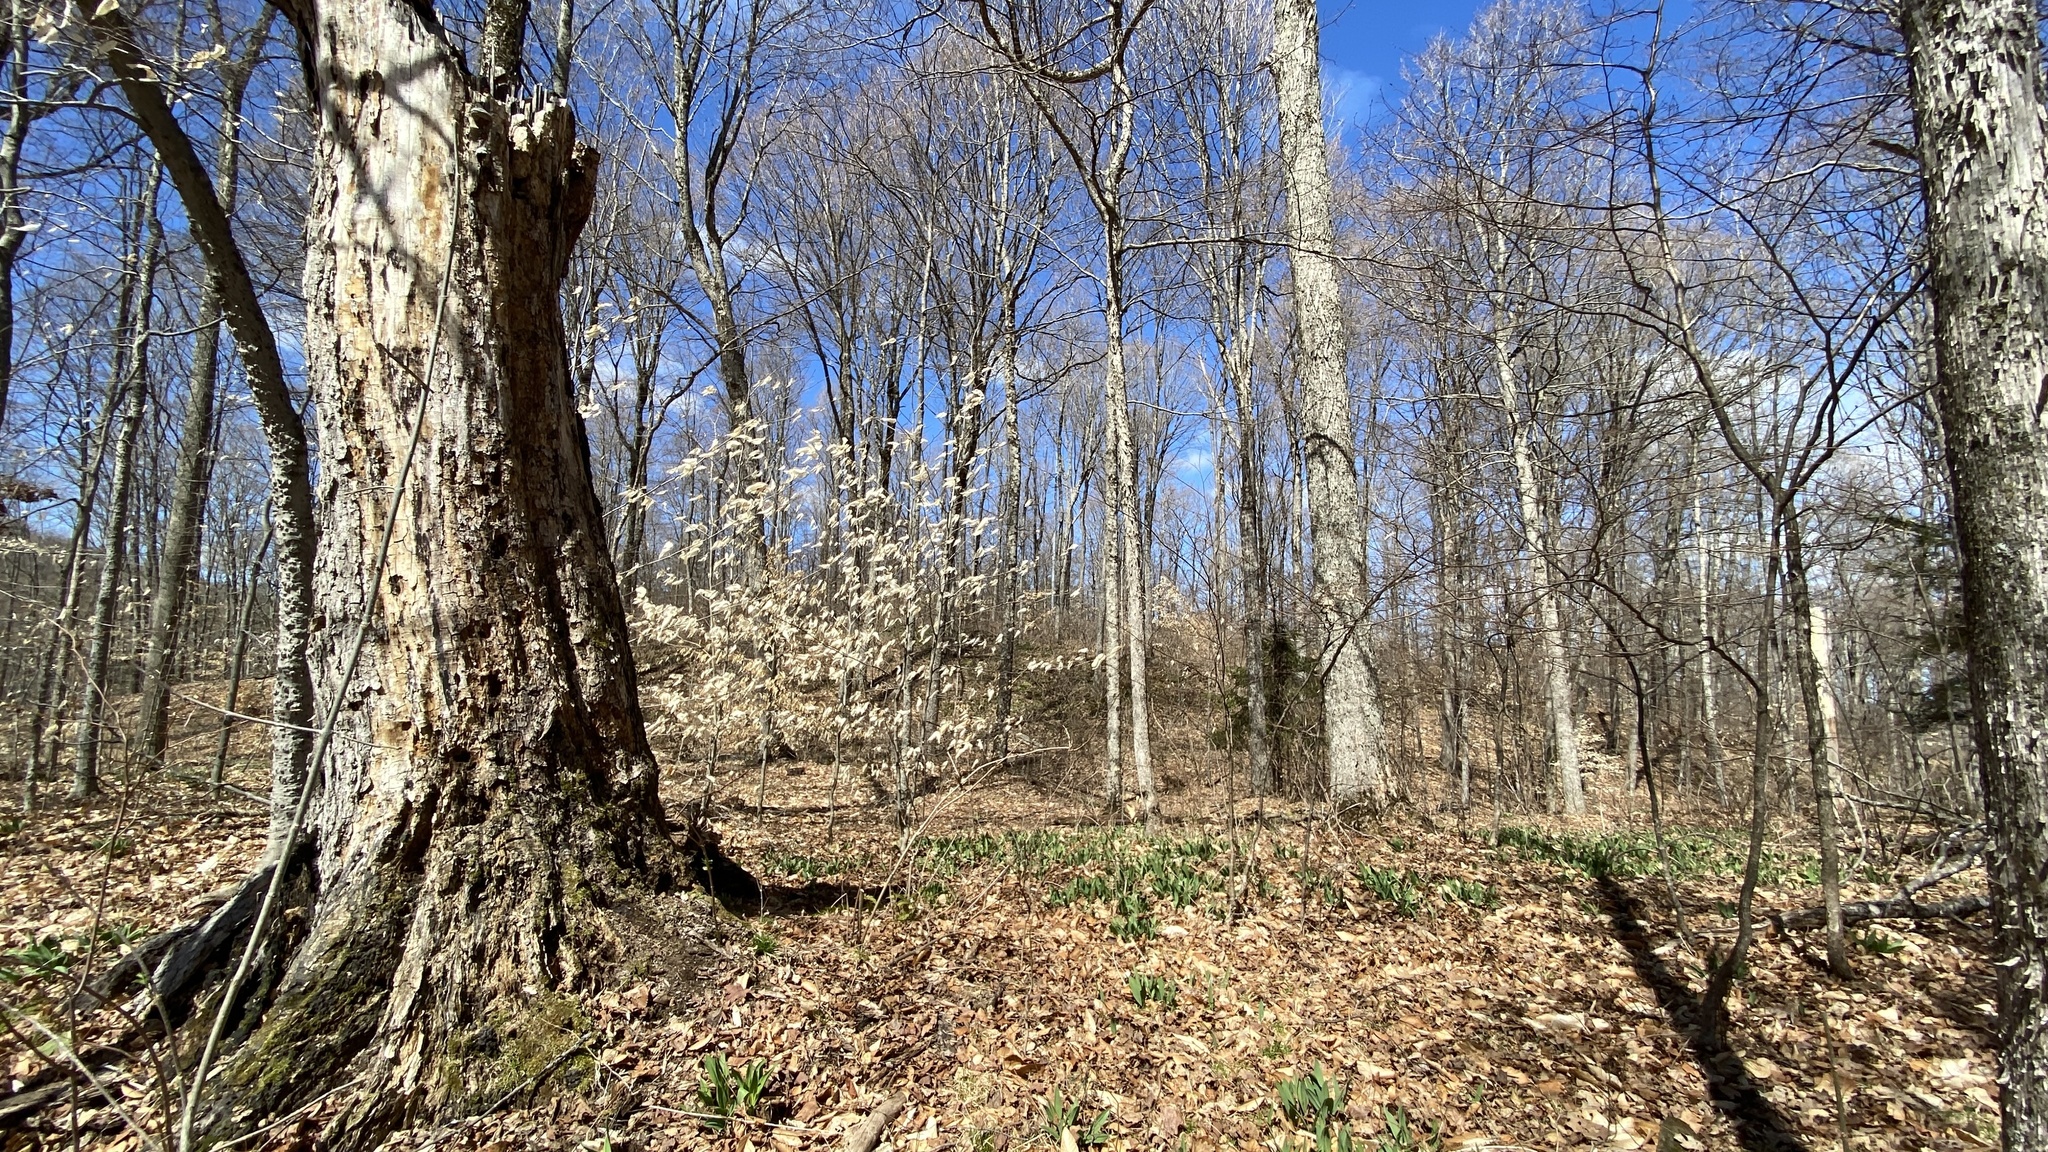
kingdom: Plantae
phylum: Tracheophyta
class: Magnoliopsida
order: Sapindales
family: Sapindaceae
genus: Acer
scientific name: Acer saccharum
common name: Sugar maple
